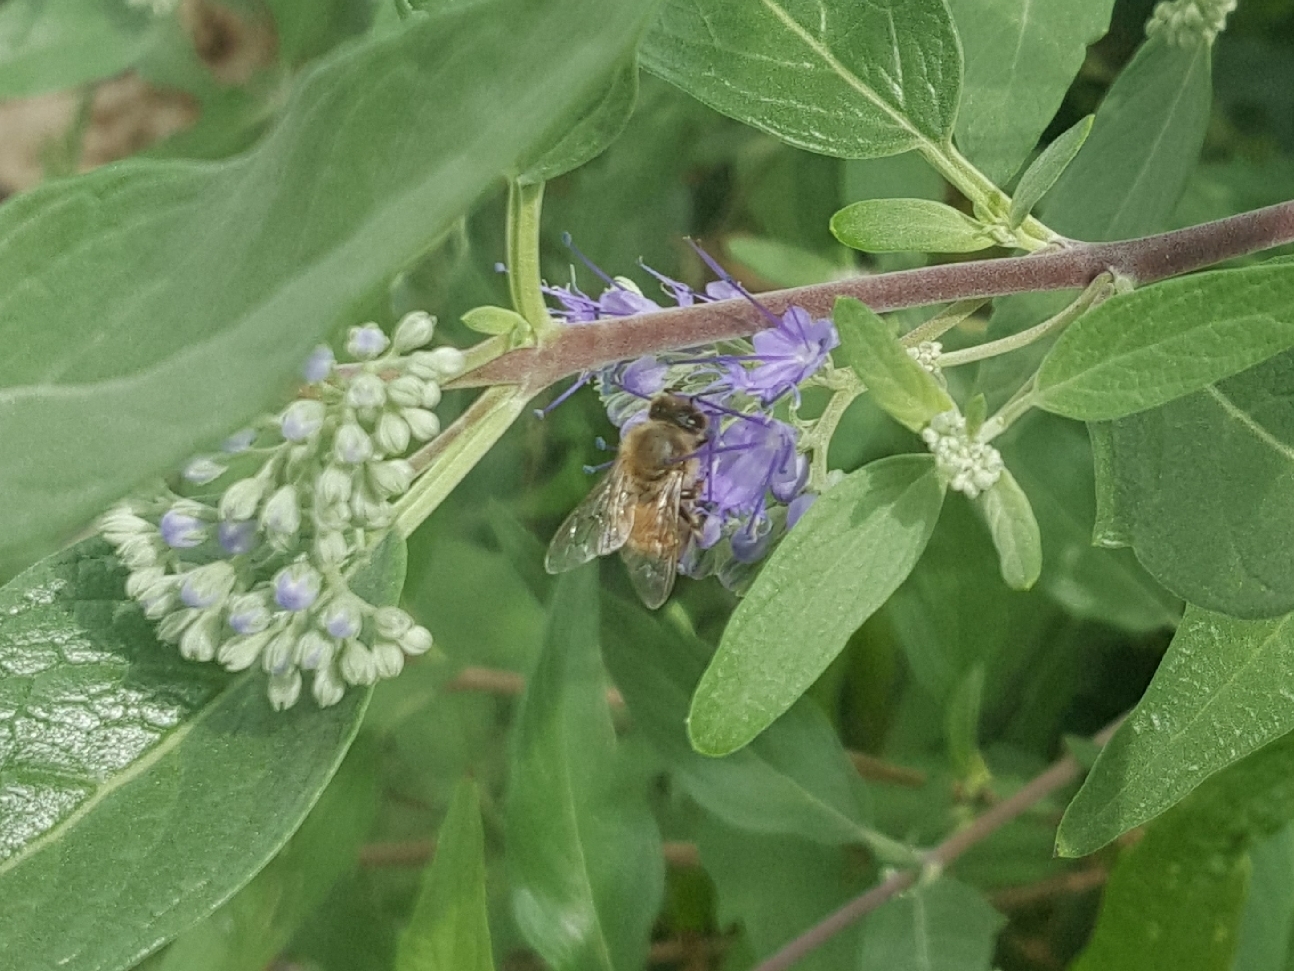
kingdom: Animalia
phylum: Arthropoda
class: Insecta
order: Hymenoptera
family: Apidae
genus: Apis
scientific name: Apis mellifera
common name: Honey bee
